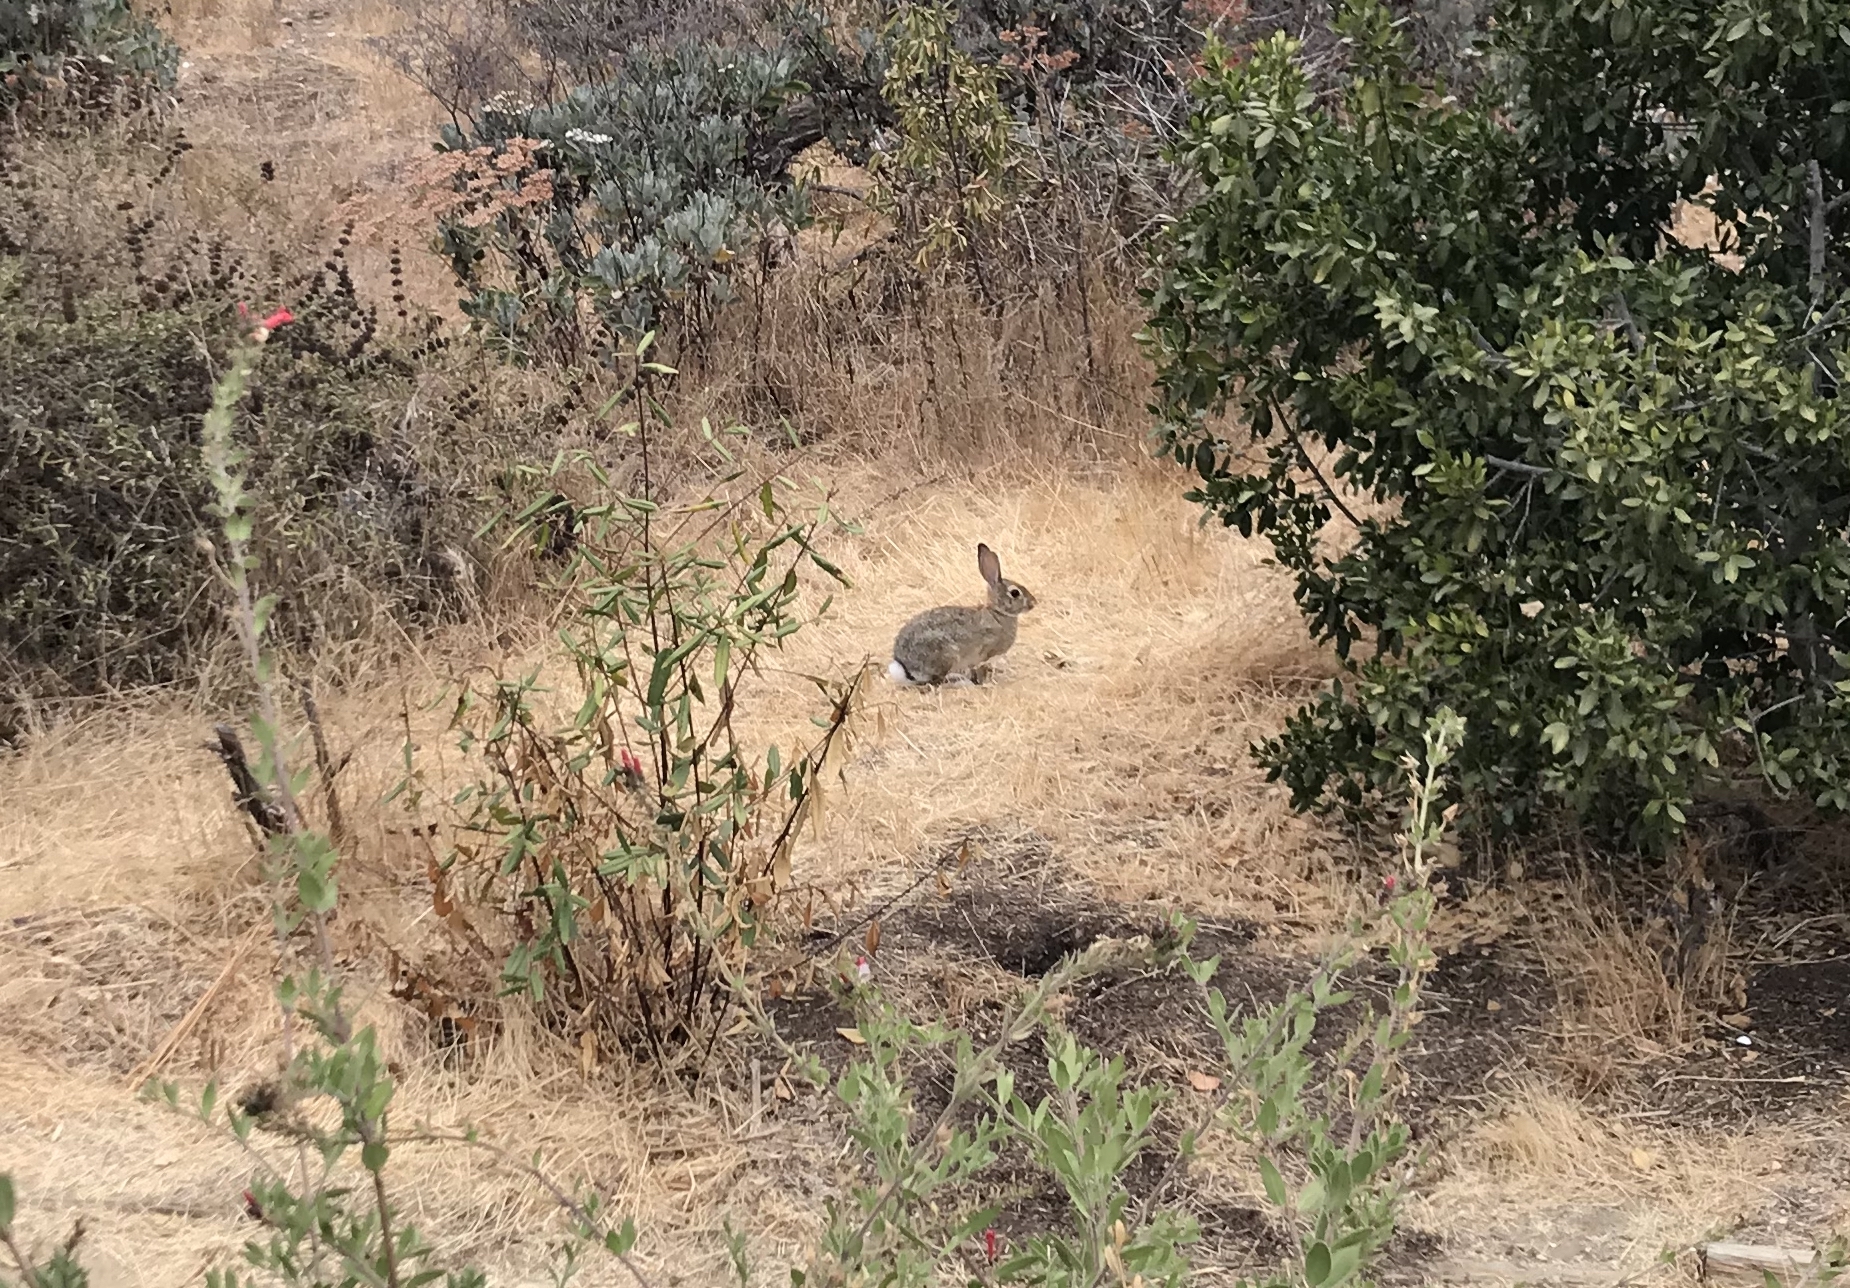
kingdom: Animalia
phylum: Chordata
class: Mammalia
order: Lagomorpha
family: Leporidae
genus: Sylvilagus
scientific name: Sylvilagus audubonii
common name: Desert cottontail
